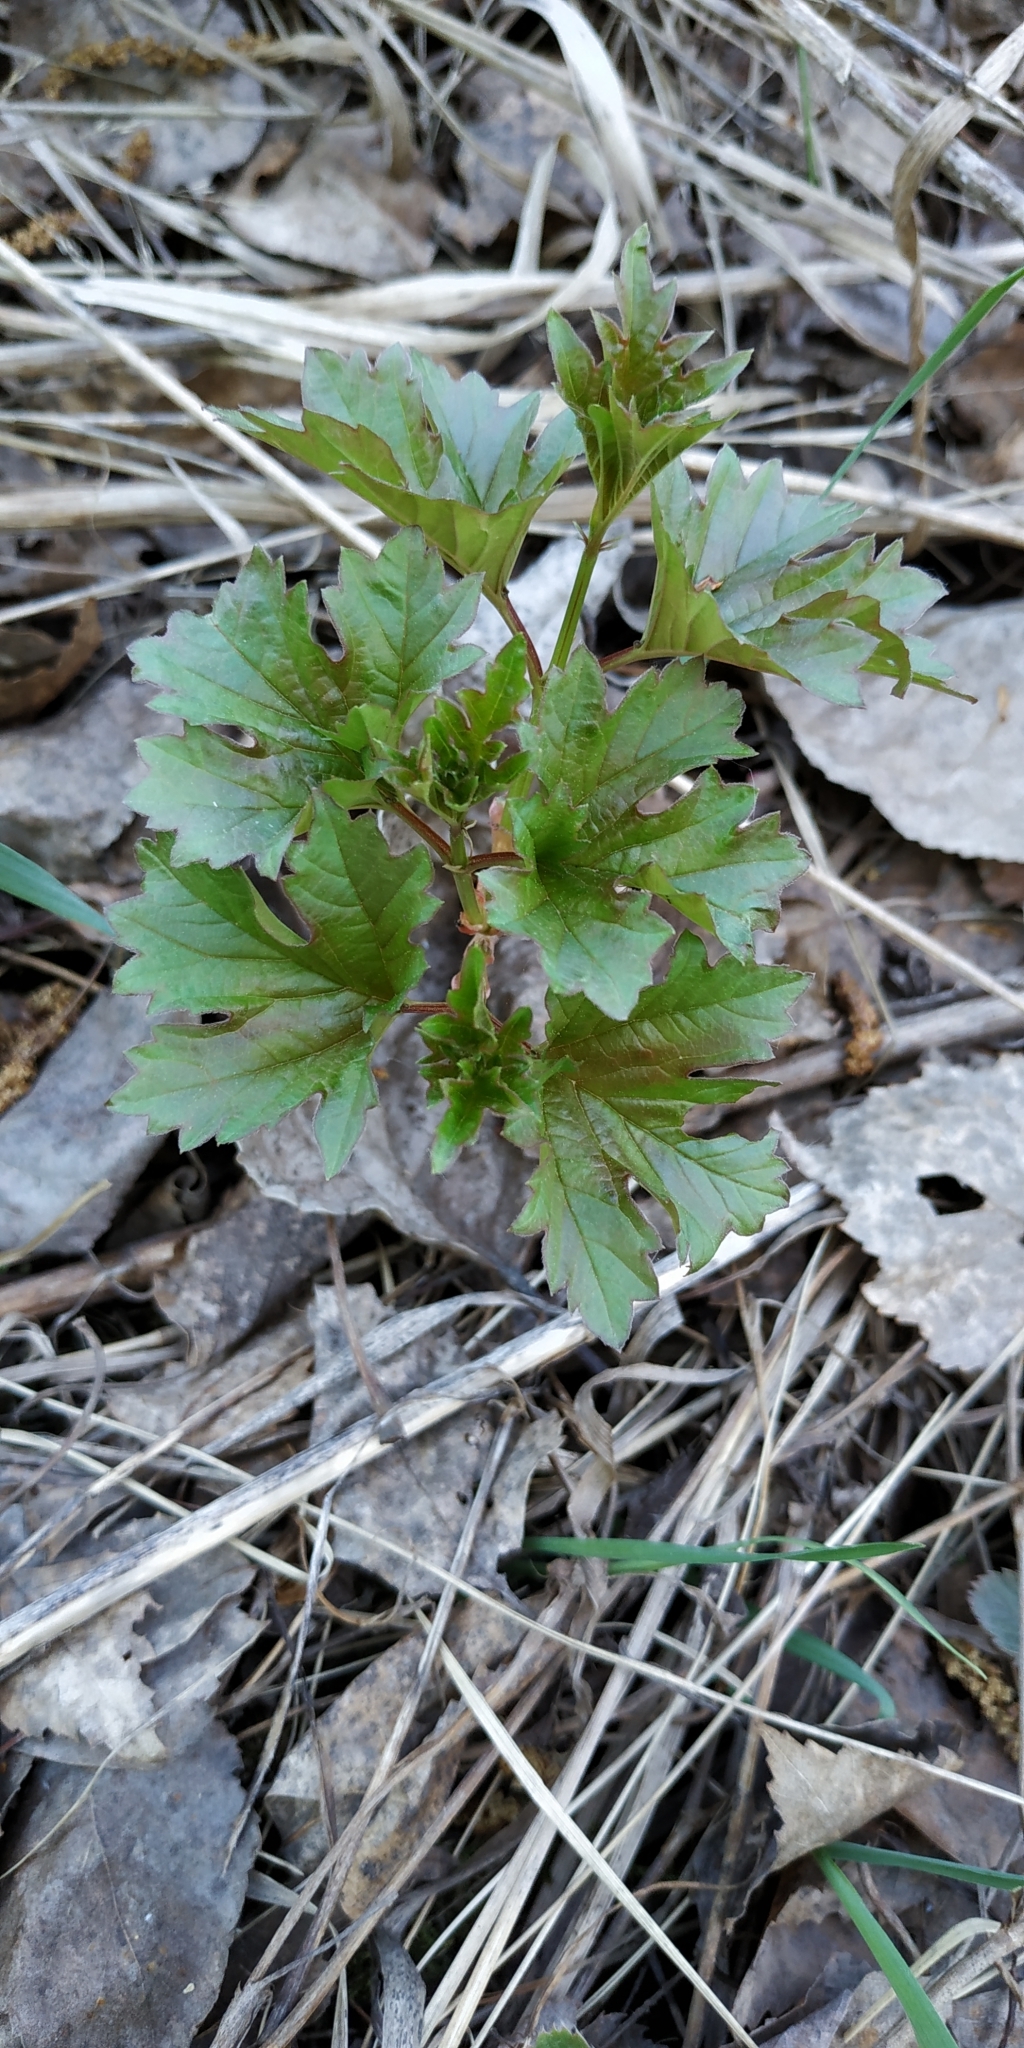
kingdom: Plantae
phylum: Tracheophyta
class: Magnoliopsida
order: Dipsacales
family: Viburnaceae
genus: Viburnum
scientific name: Viburnum opulus
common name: Guelder-rose
